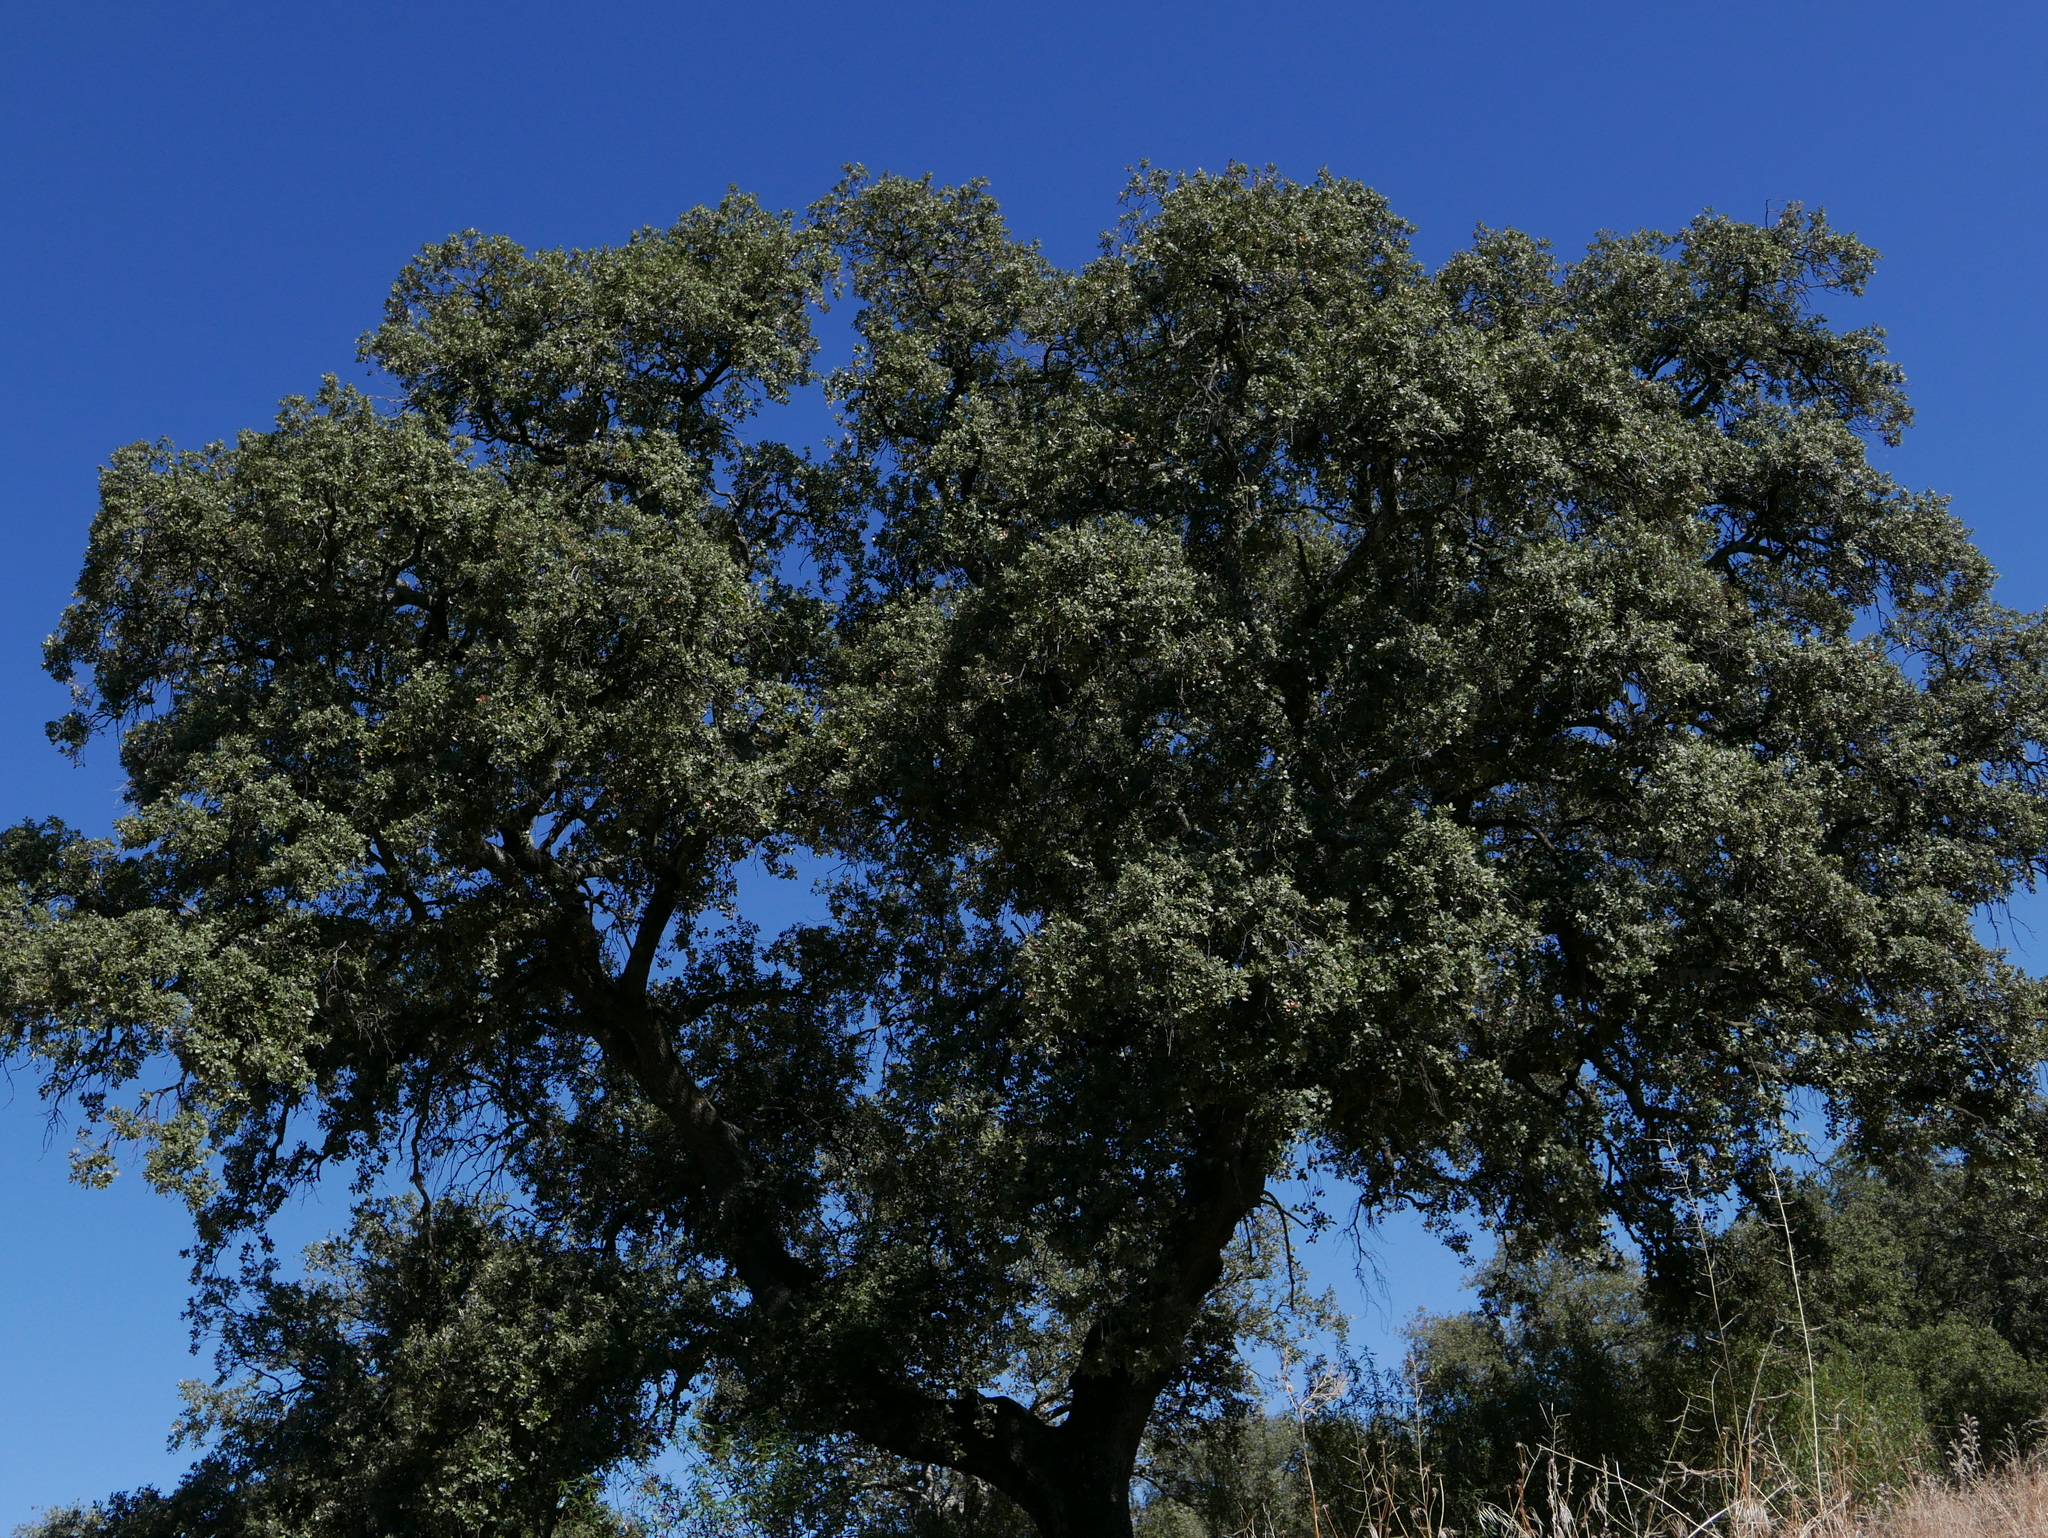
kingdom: Plantae
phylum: Tracheophyta
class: Magnoliopsida
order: Fagales
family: Fagaceae
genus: Quercus
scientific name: Quercus rotundifolia
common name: Holm oak
